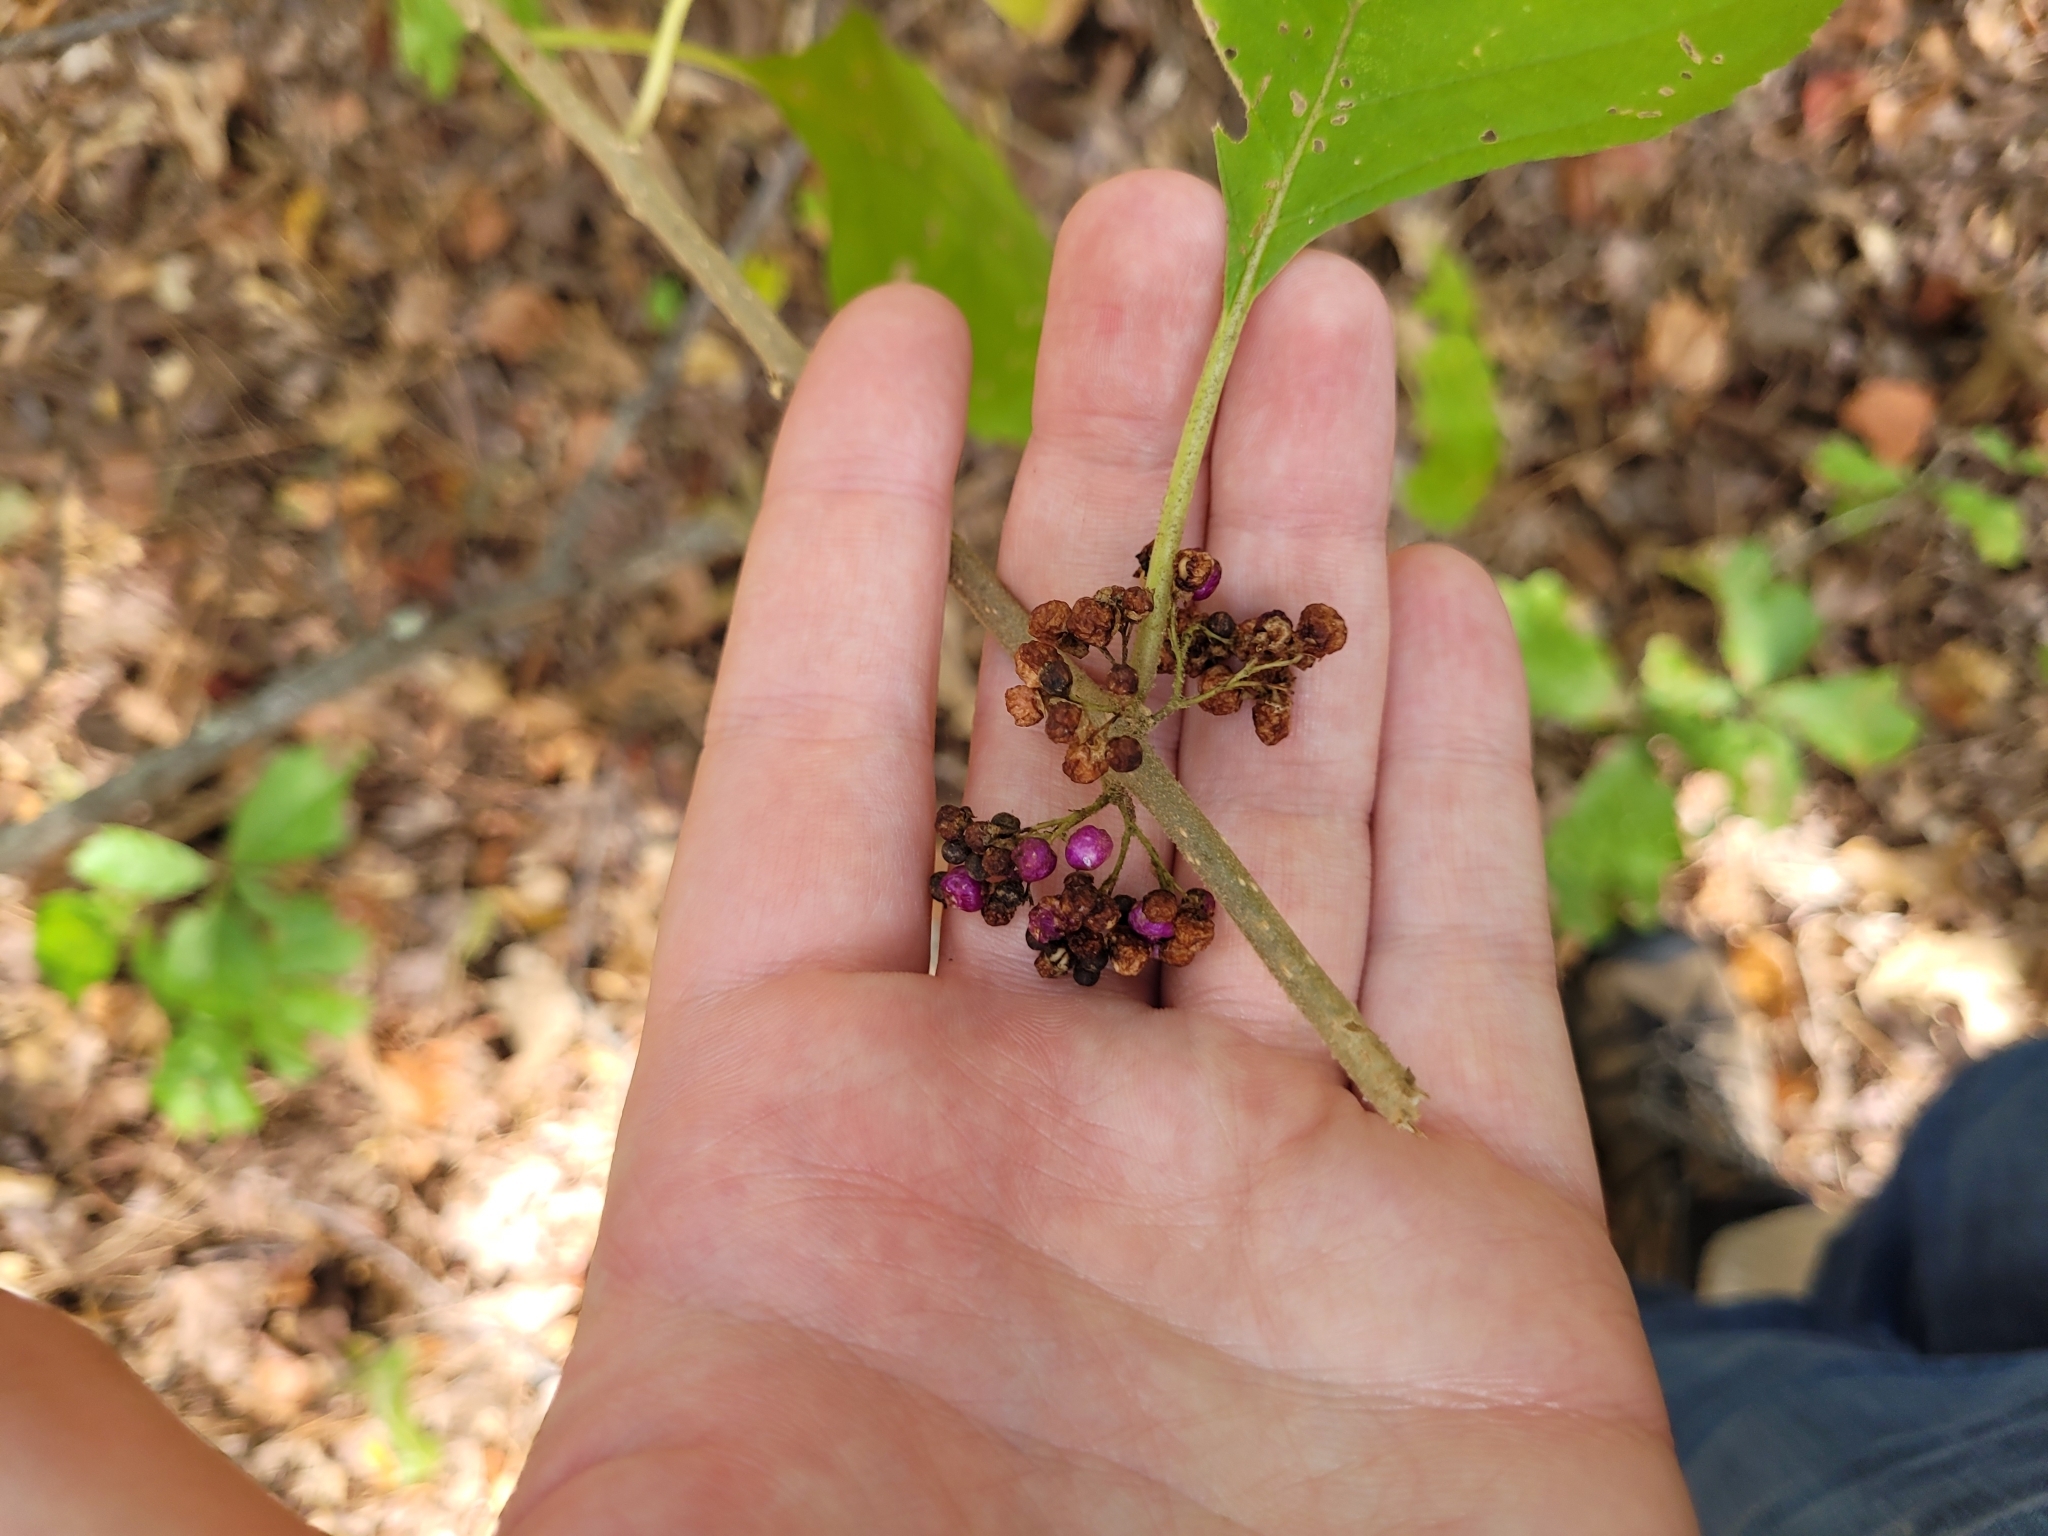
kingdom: Plantae
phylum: Tracheophyta
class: Magnoliopsida
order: Lamiales
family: Lamiaceae
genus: Callicarpa
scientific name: Callicarpa americana
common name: American beautyberry
